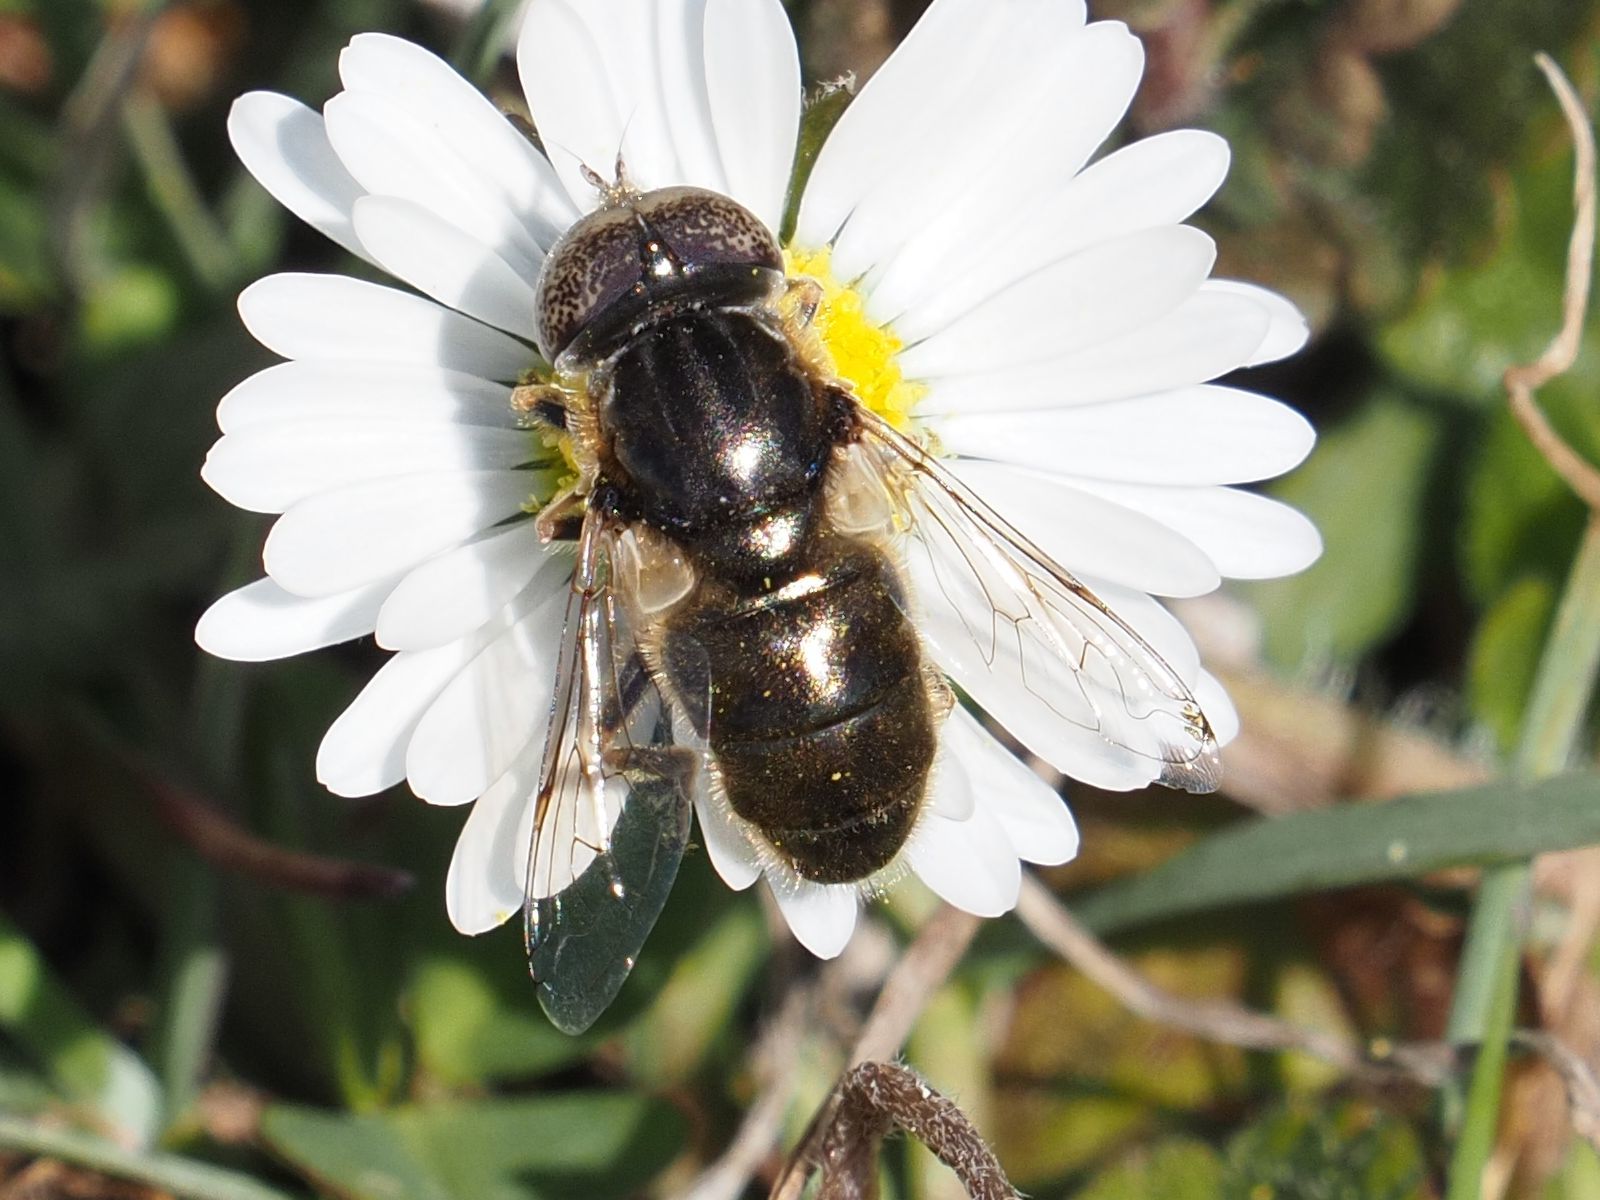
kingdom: Animalia
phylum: Arthropoda
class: Insecta
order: Diptera
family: Syrphidae
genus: Eristalinus
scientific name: Eristalinus aeneus
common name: Syrphid fly
